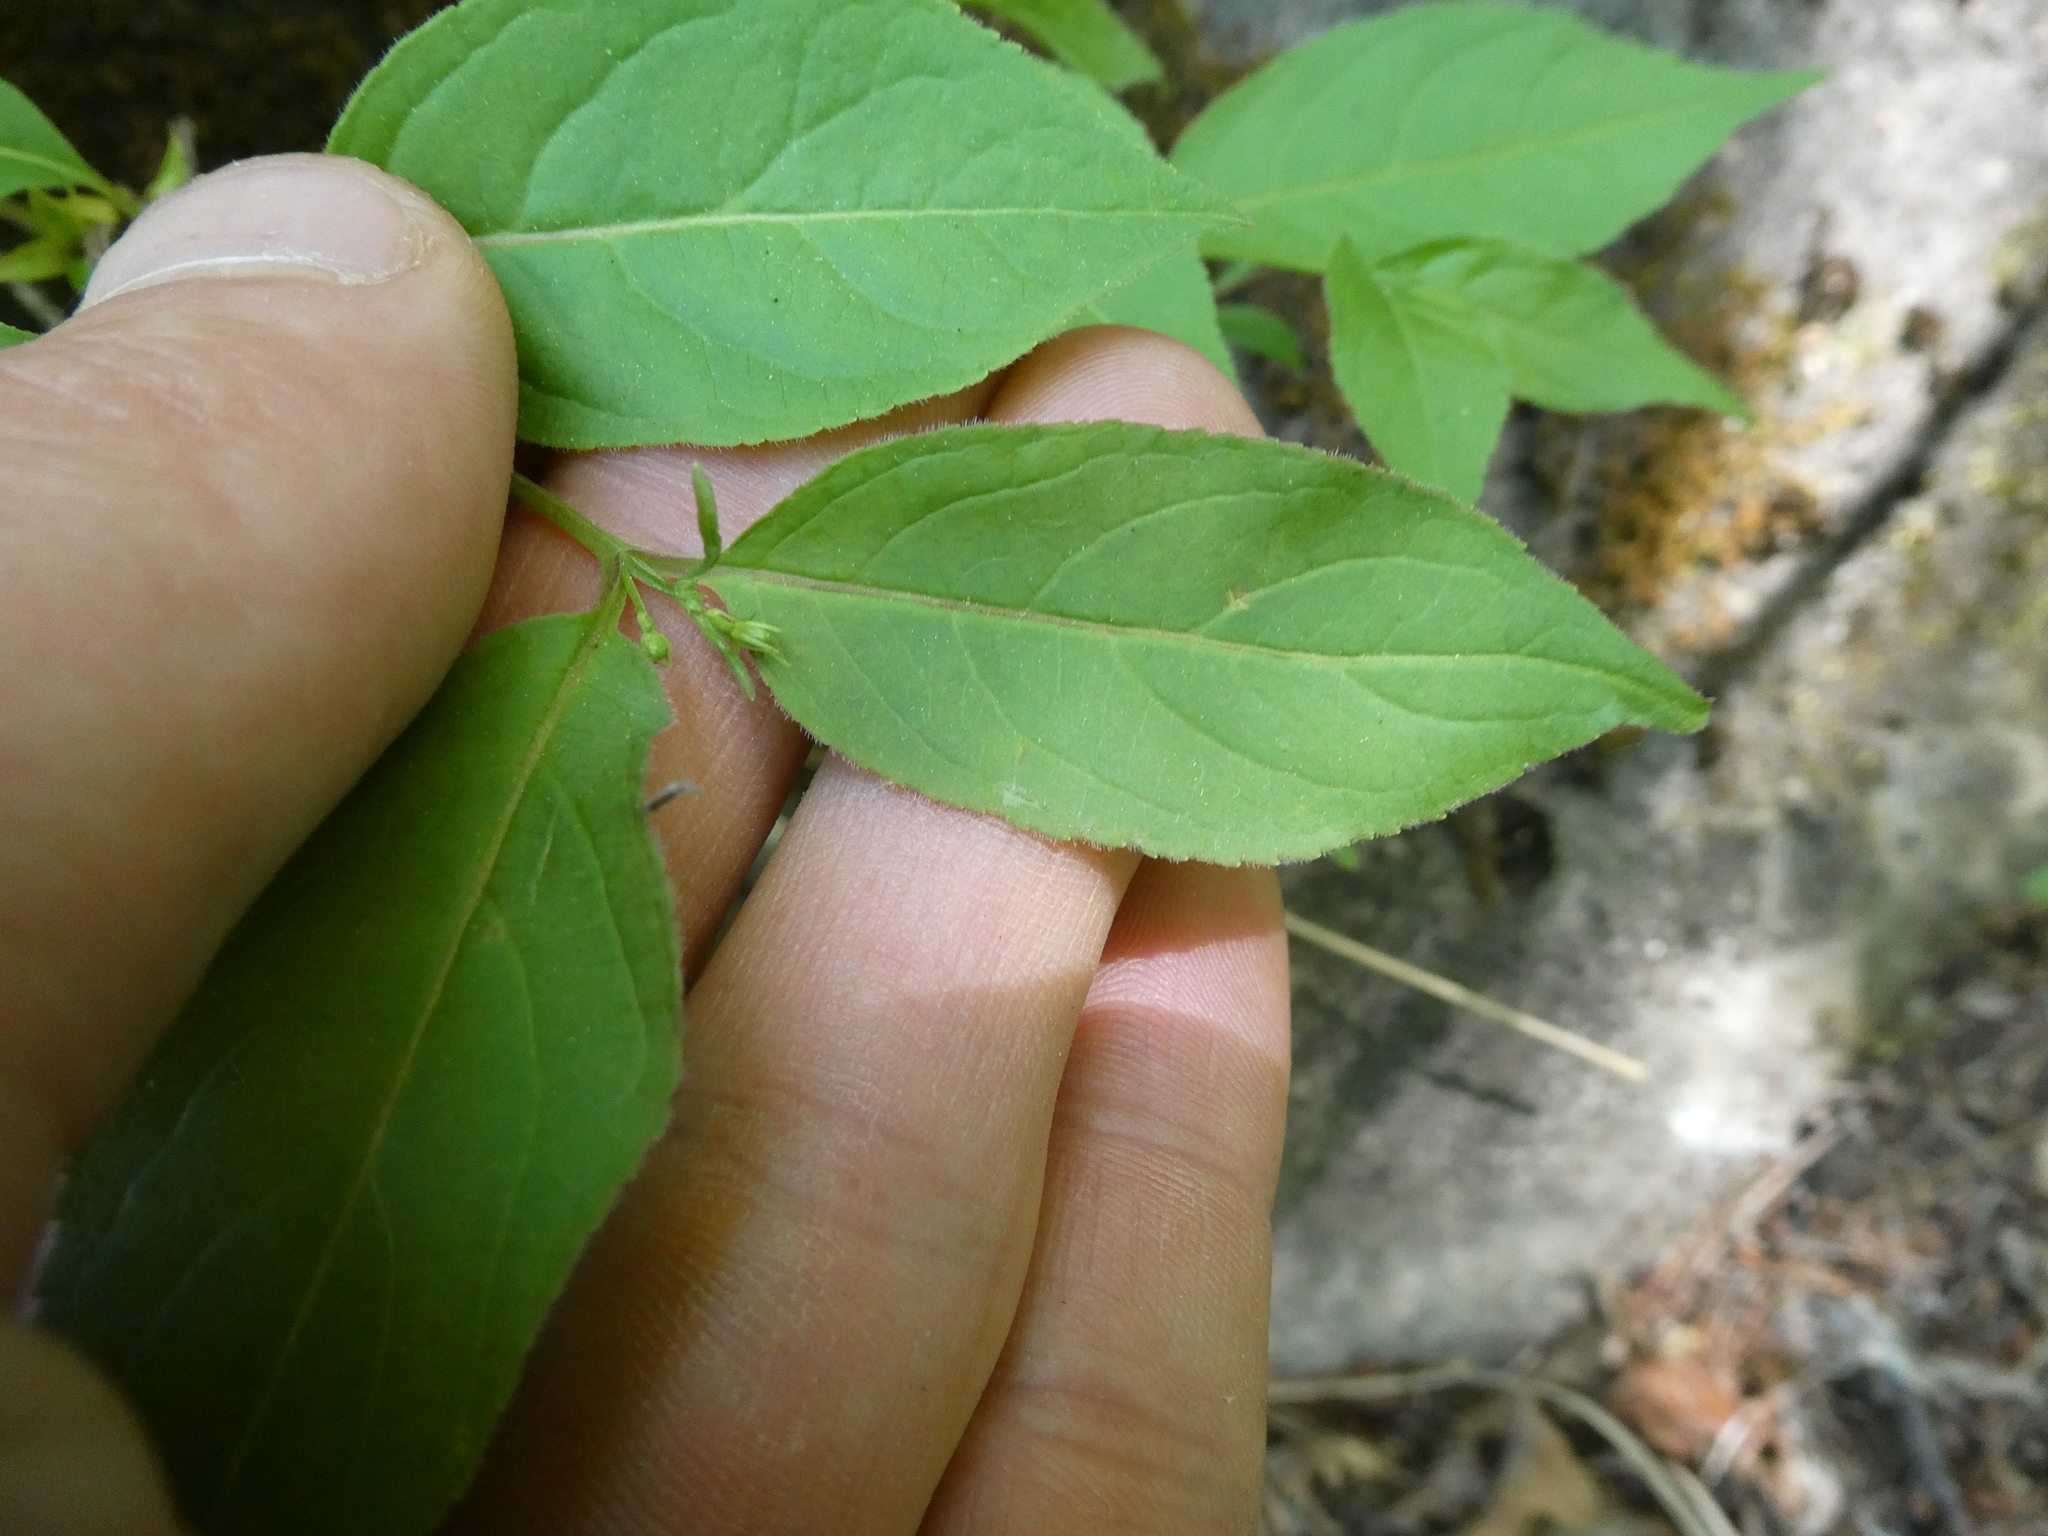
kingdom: Plantae
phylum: Tracheophyta
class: Magnoliopsida
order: Dipsacales
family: Caprifoliaceae
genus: Diervilla
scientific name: Diervilla lonicera
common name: Bush-honeysuckle
